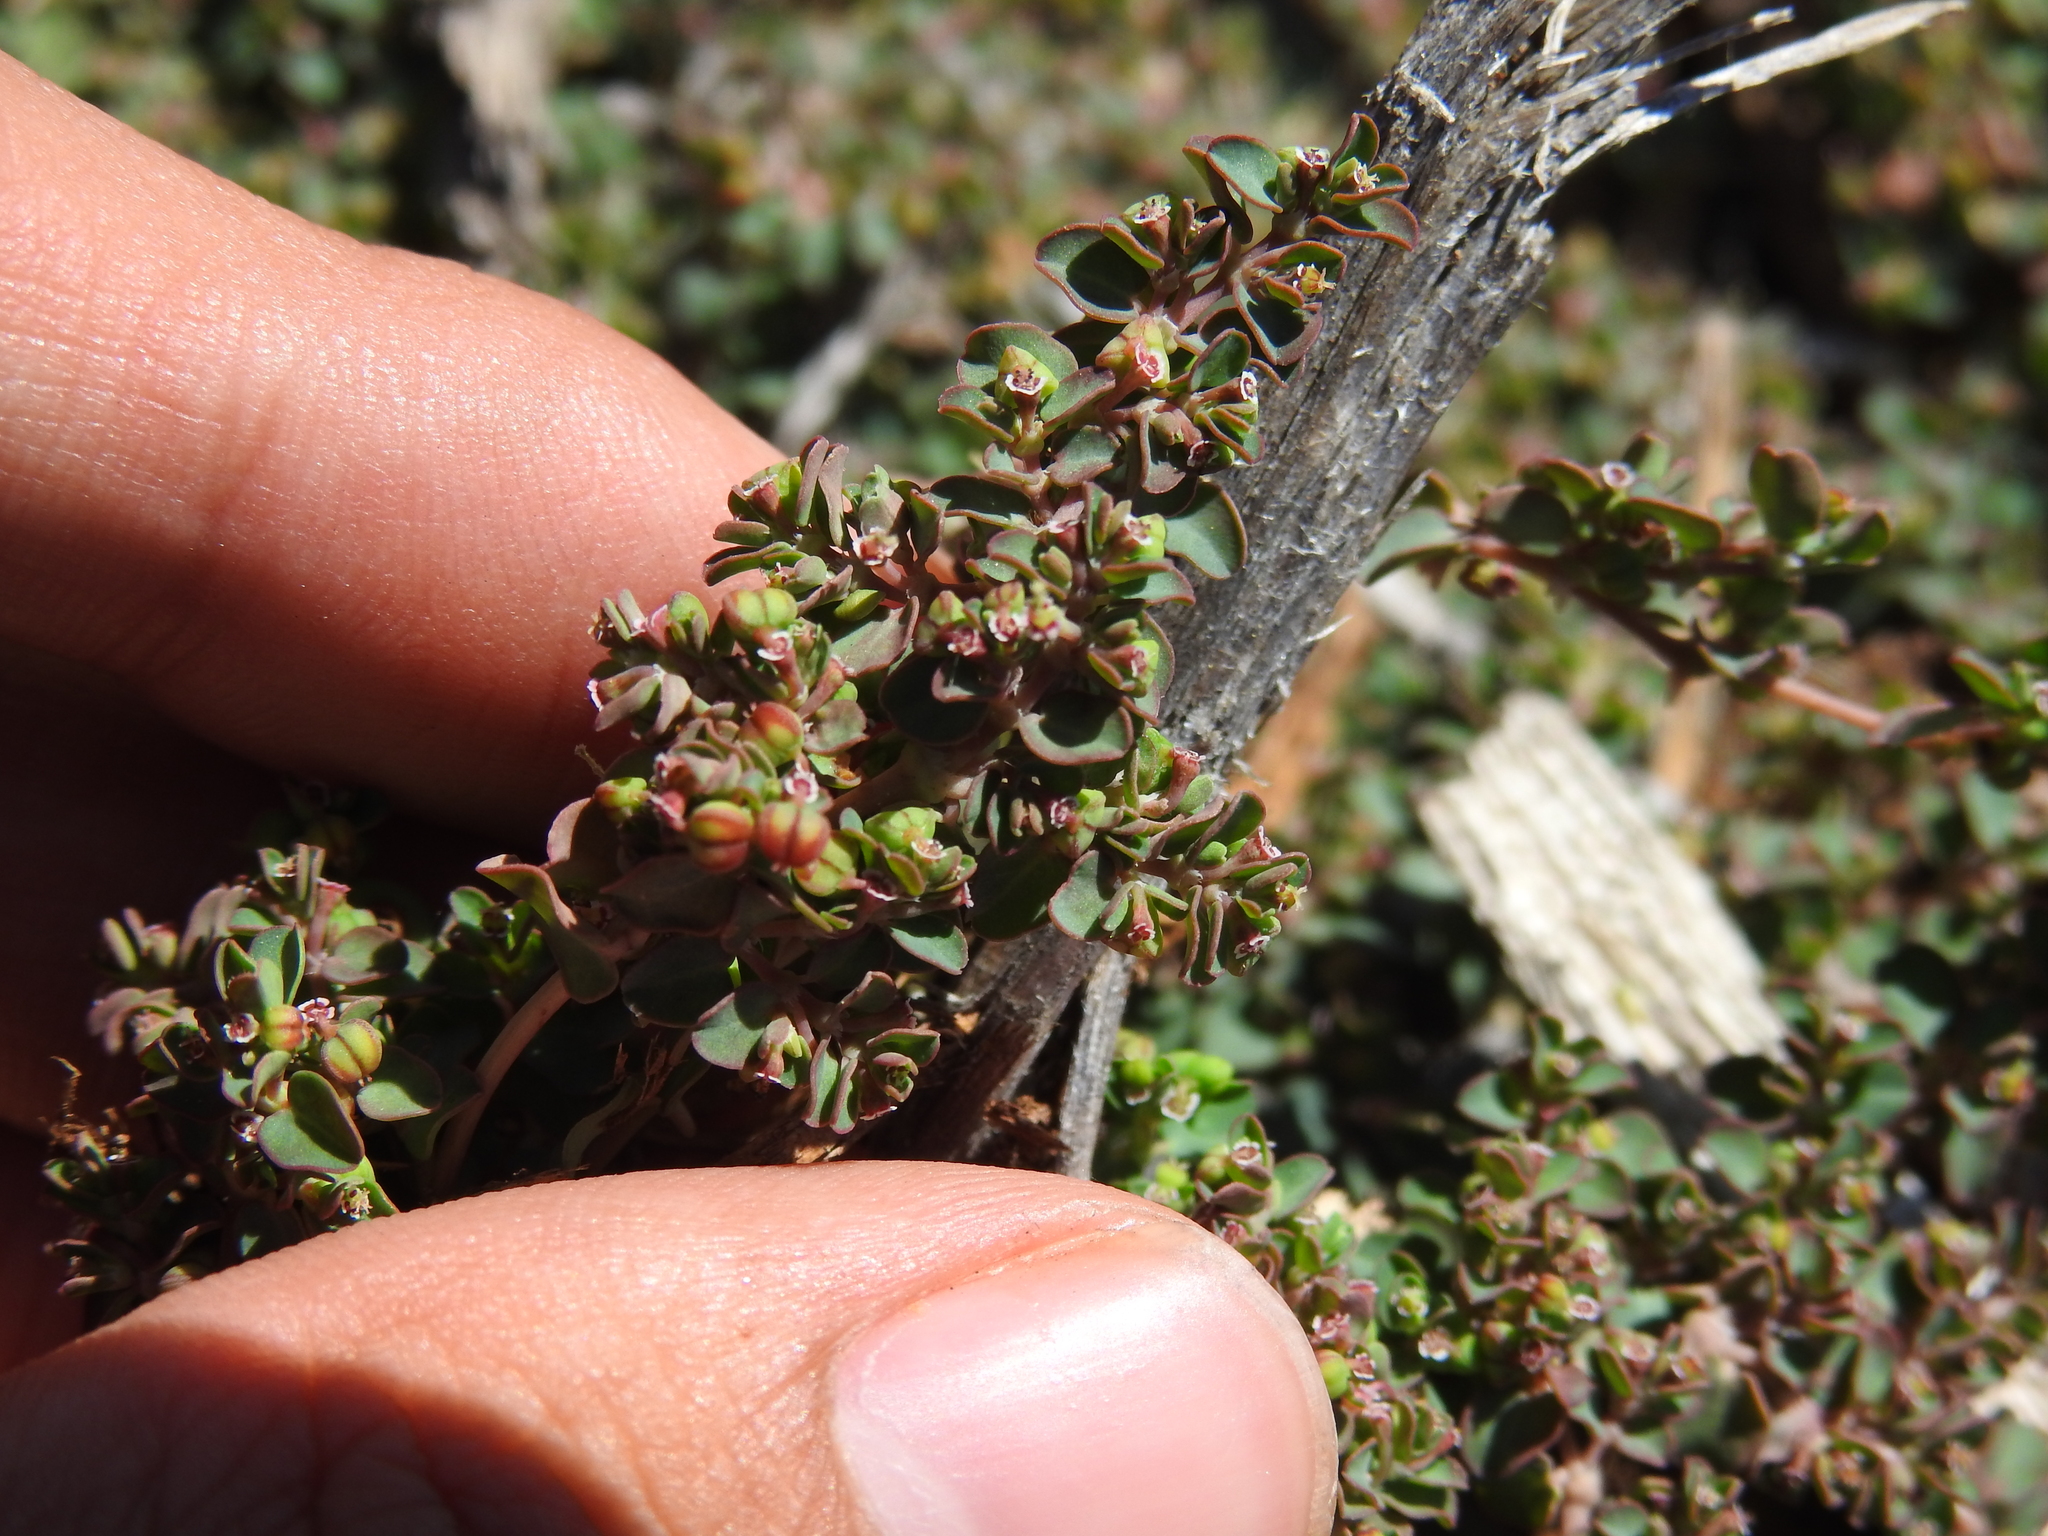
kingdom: Plantae
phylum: Tracheophyta
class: Magnoliopsida
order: Malpighiales
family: Euphorbiaceae
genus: Euphorbia
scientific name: Euphorbia serpens
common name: Matted sandmat
